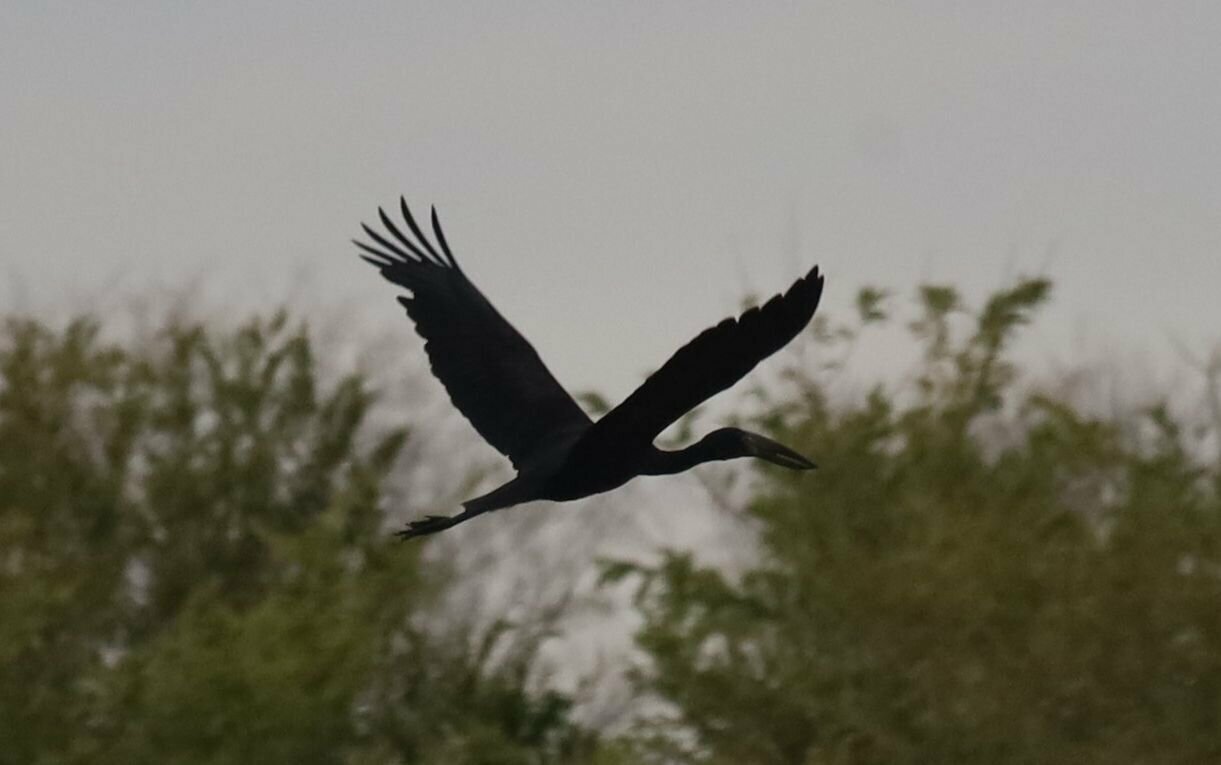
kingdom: Animalia
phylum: Chordata
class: Aves
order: Ciconiiformes
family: Ciconiidae
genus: Anastomus
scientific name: Anastomus lamelligerus
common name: African openbill
